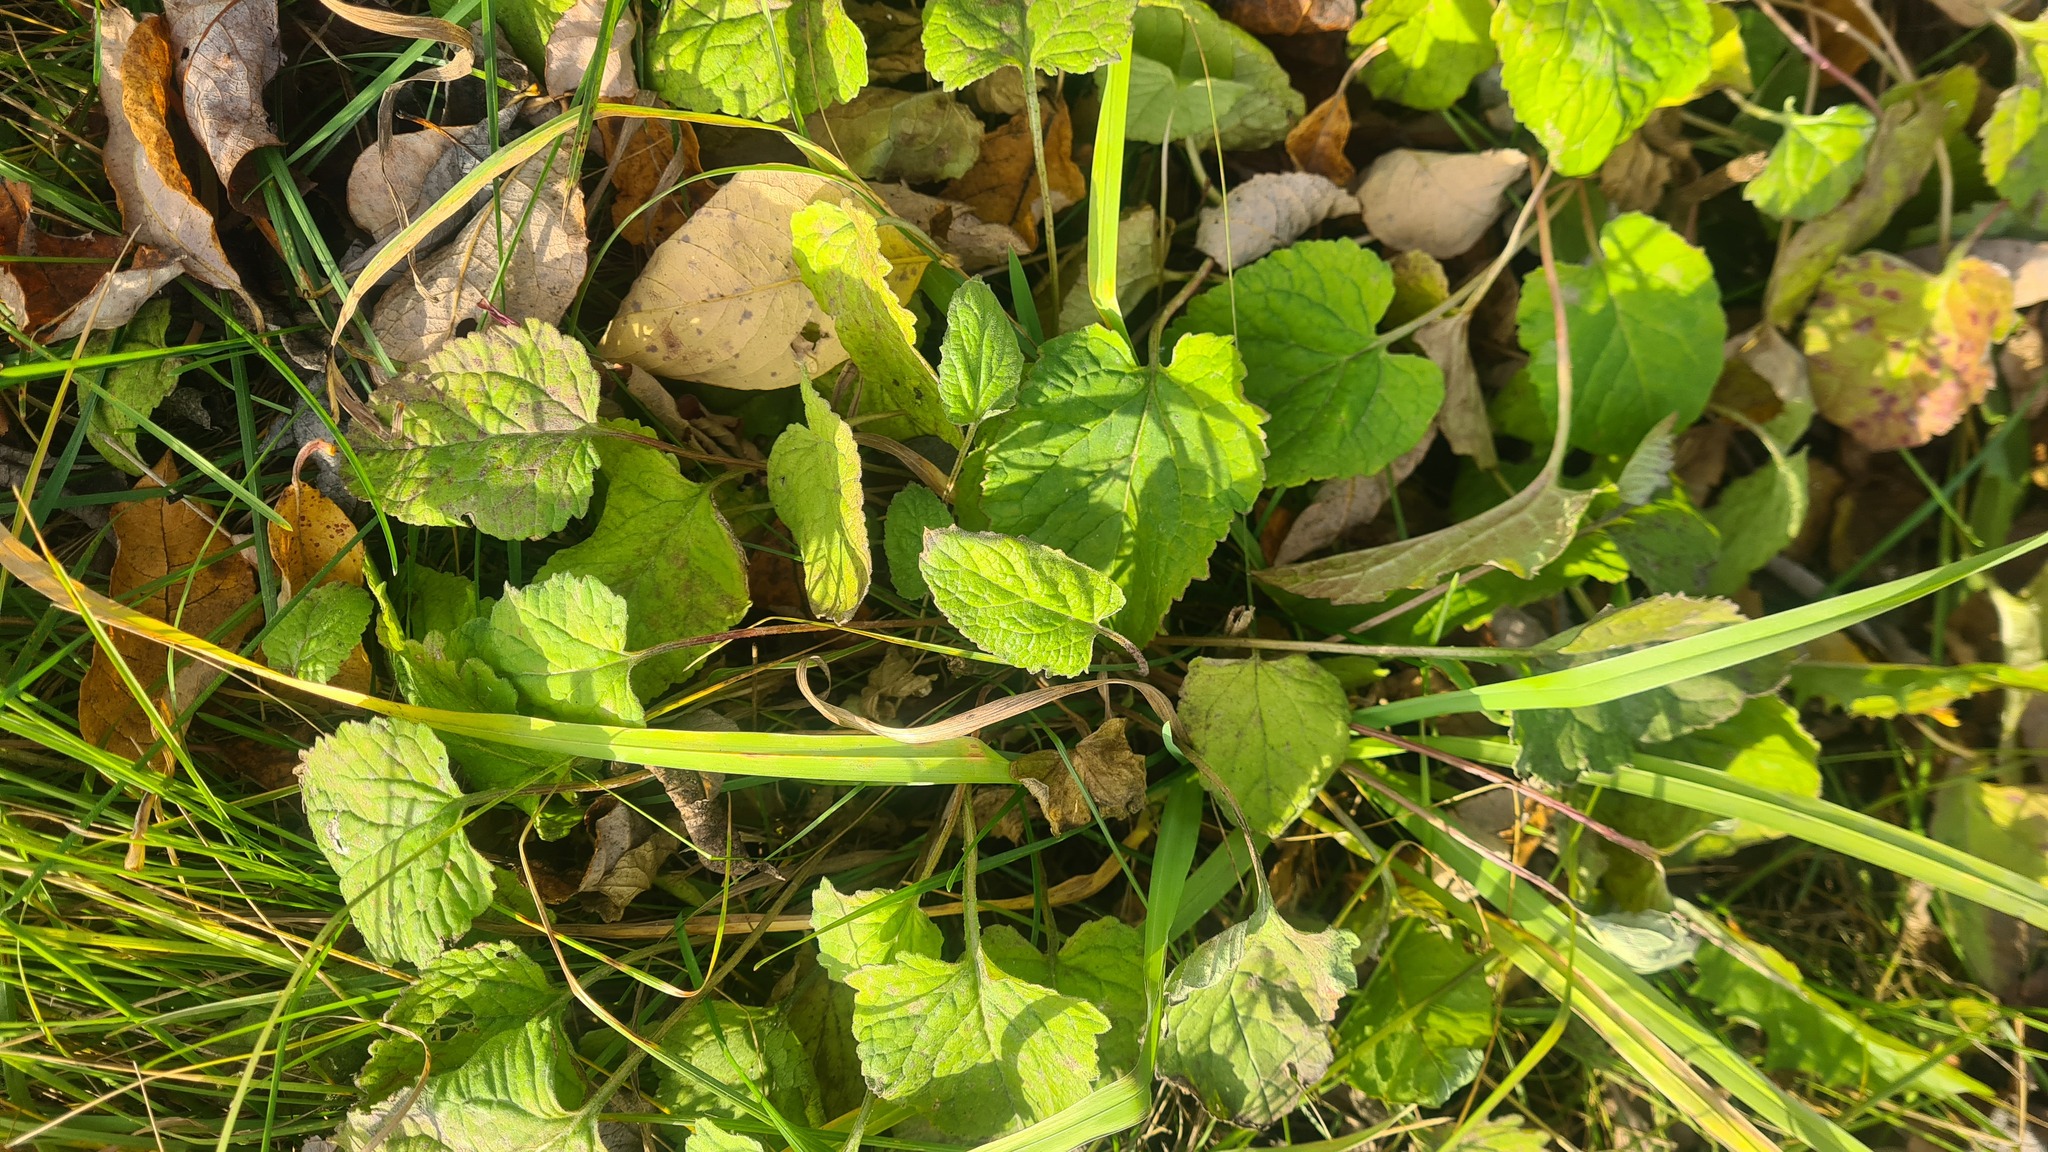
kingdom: Plantae
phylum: Tracheophyta
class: Magnoliopsida
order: Asterales
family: Campanulaceae
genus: Campanula
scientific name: Campanula rapunculoides
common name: Creeping bellflower
